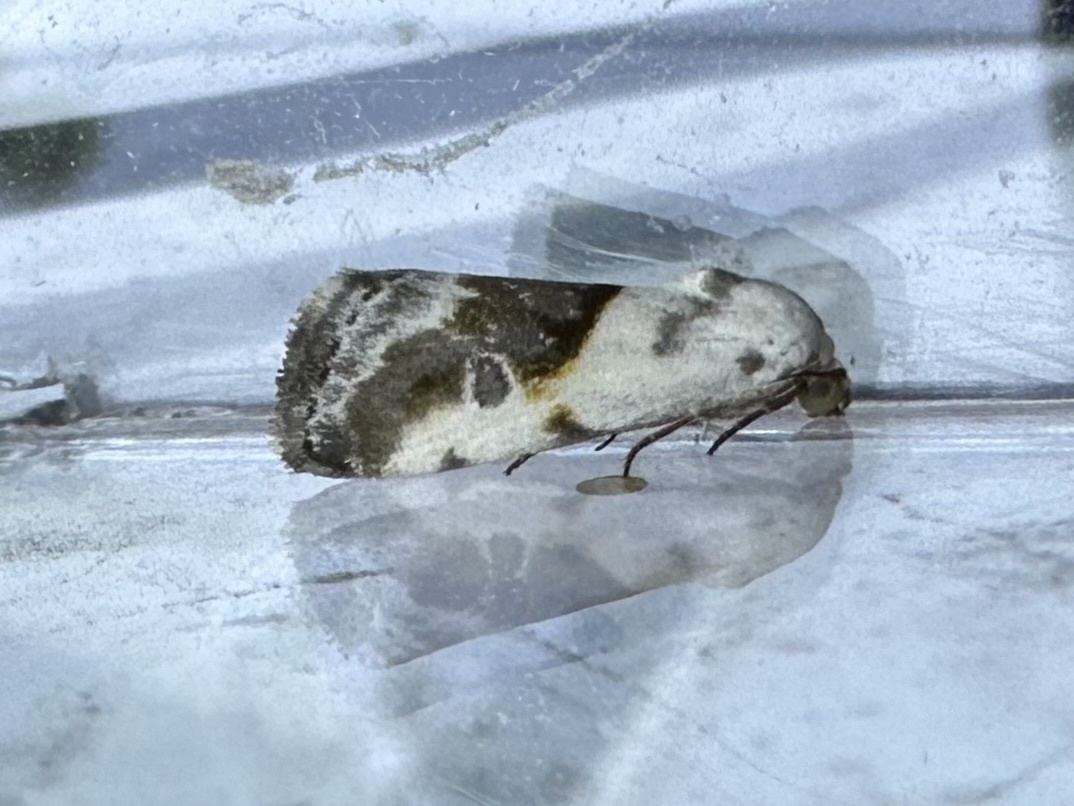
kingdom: Animalia
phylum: Arthropoda
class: Insecta
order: Lepidoptera
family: Noctuidae
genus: Acontia
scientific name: Acontia candefacta
